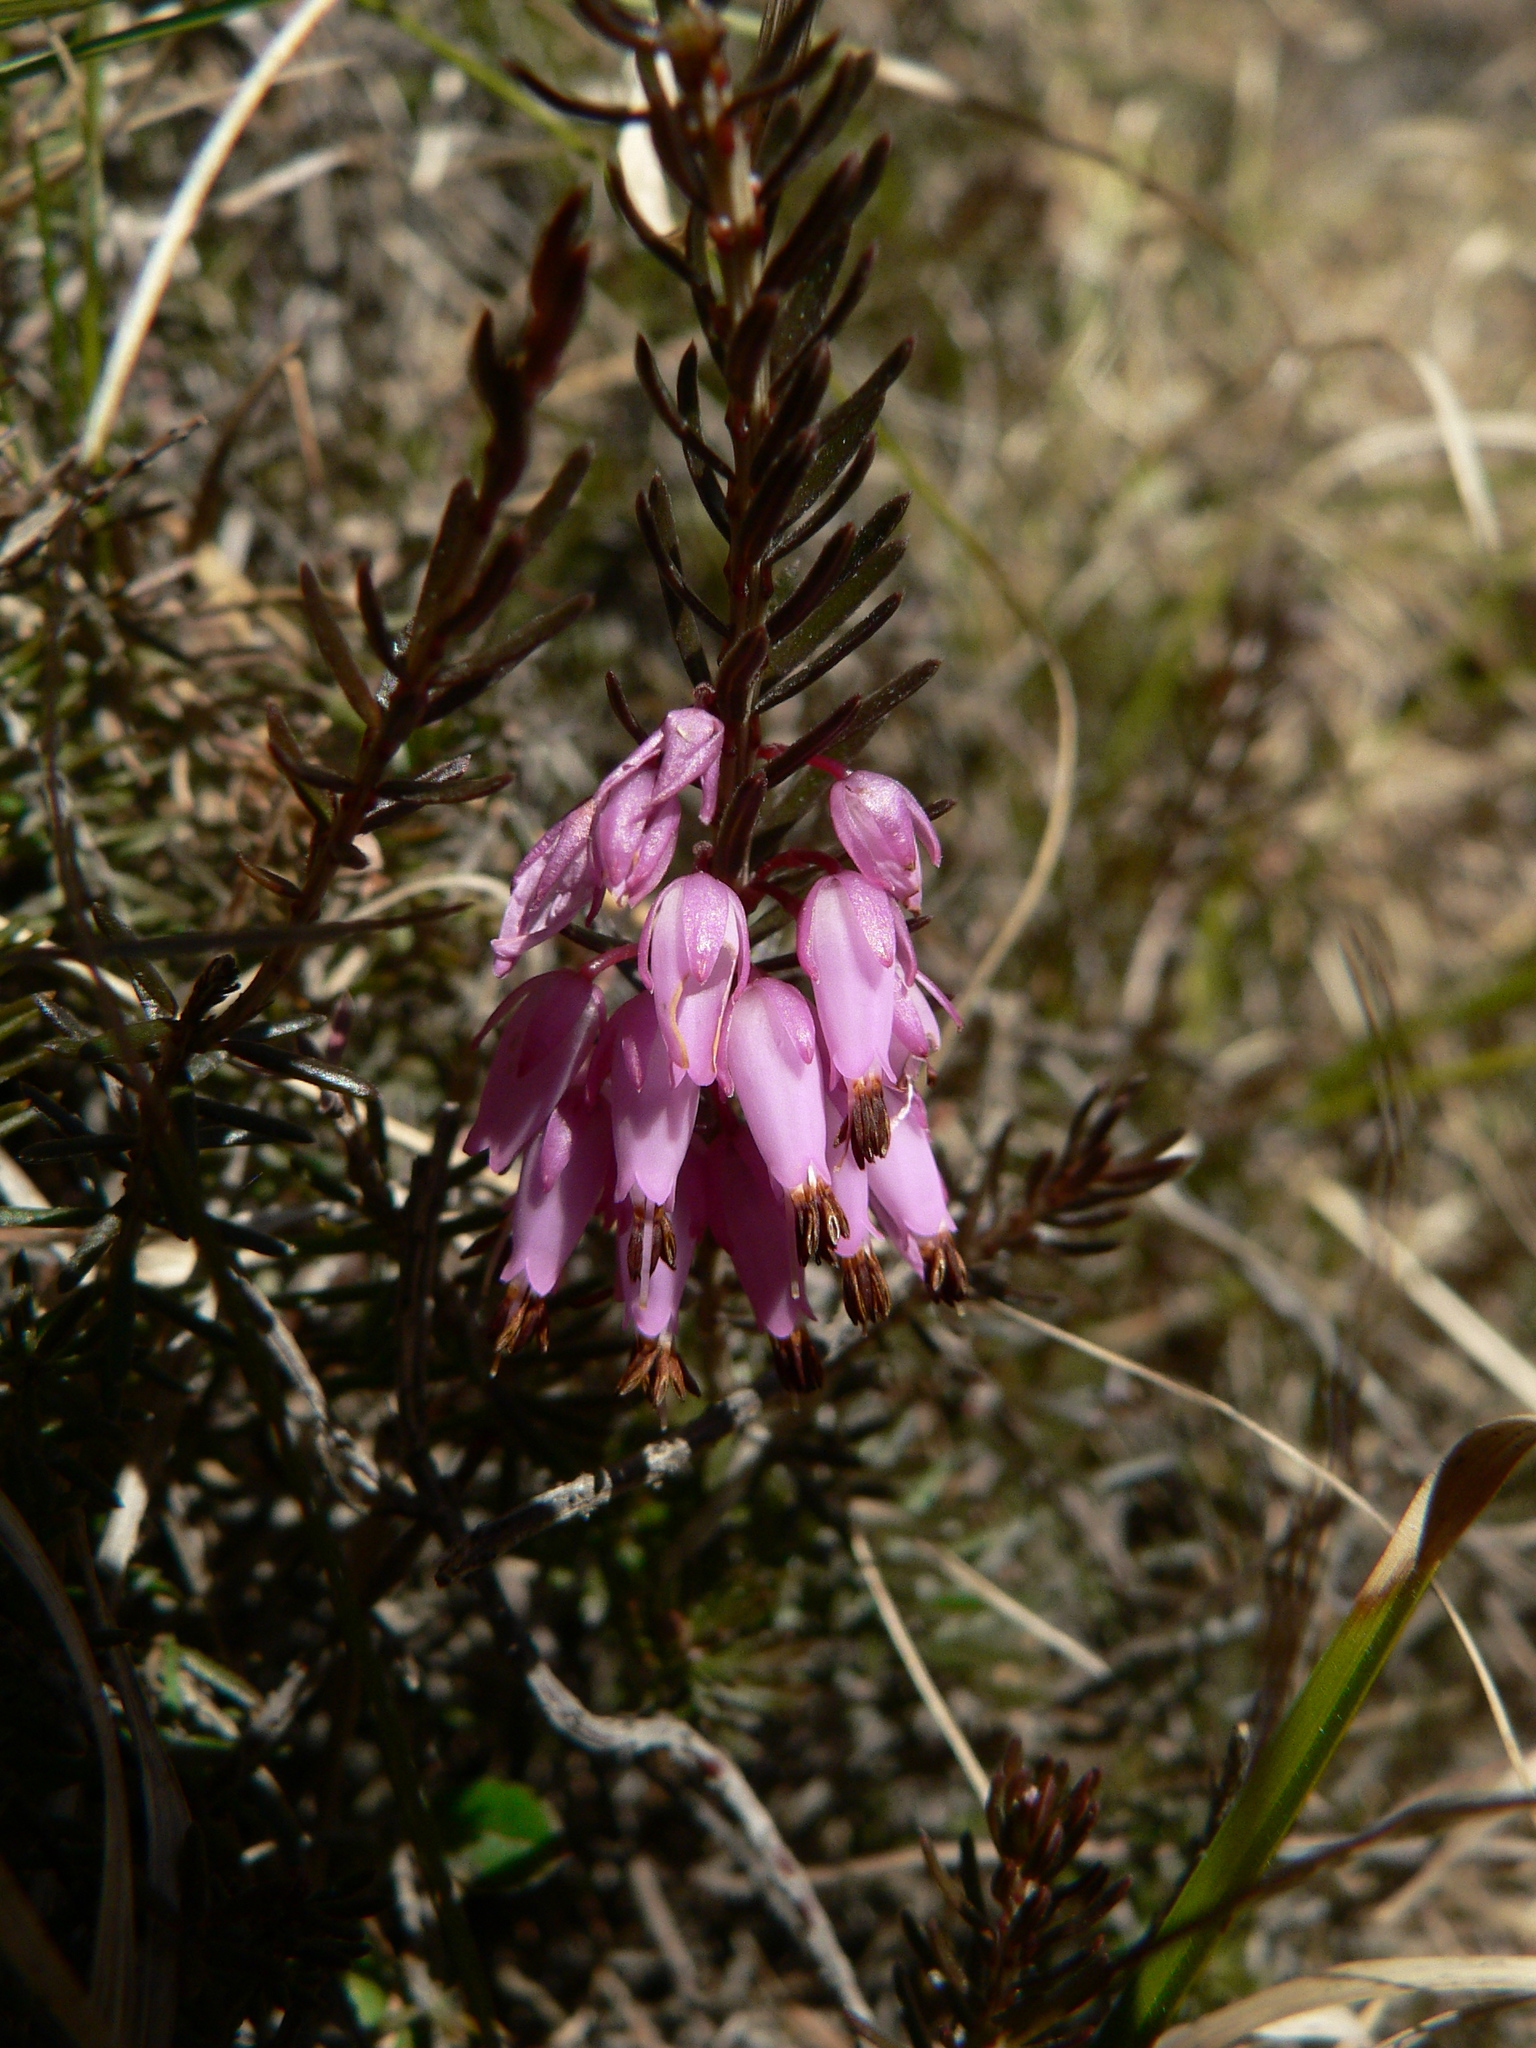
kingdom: Plantae
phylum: Tracheophyta
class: Magnoliopsida
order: Ericales
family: Ericaceae
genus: Erica
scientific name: Erica carnea
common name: Winter heath
